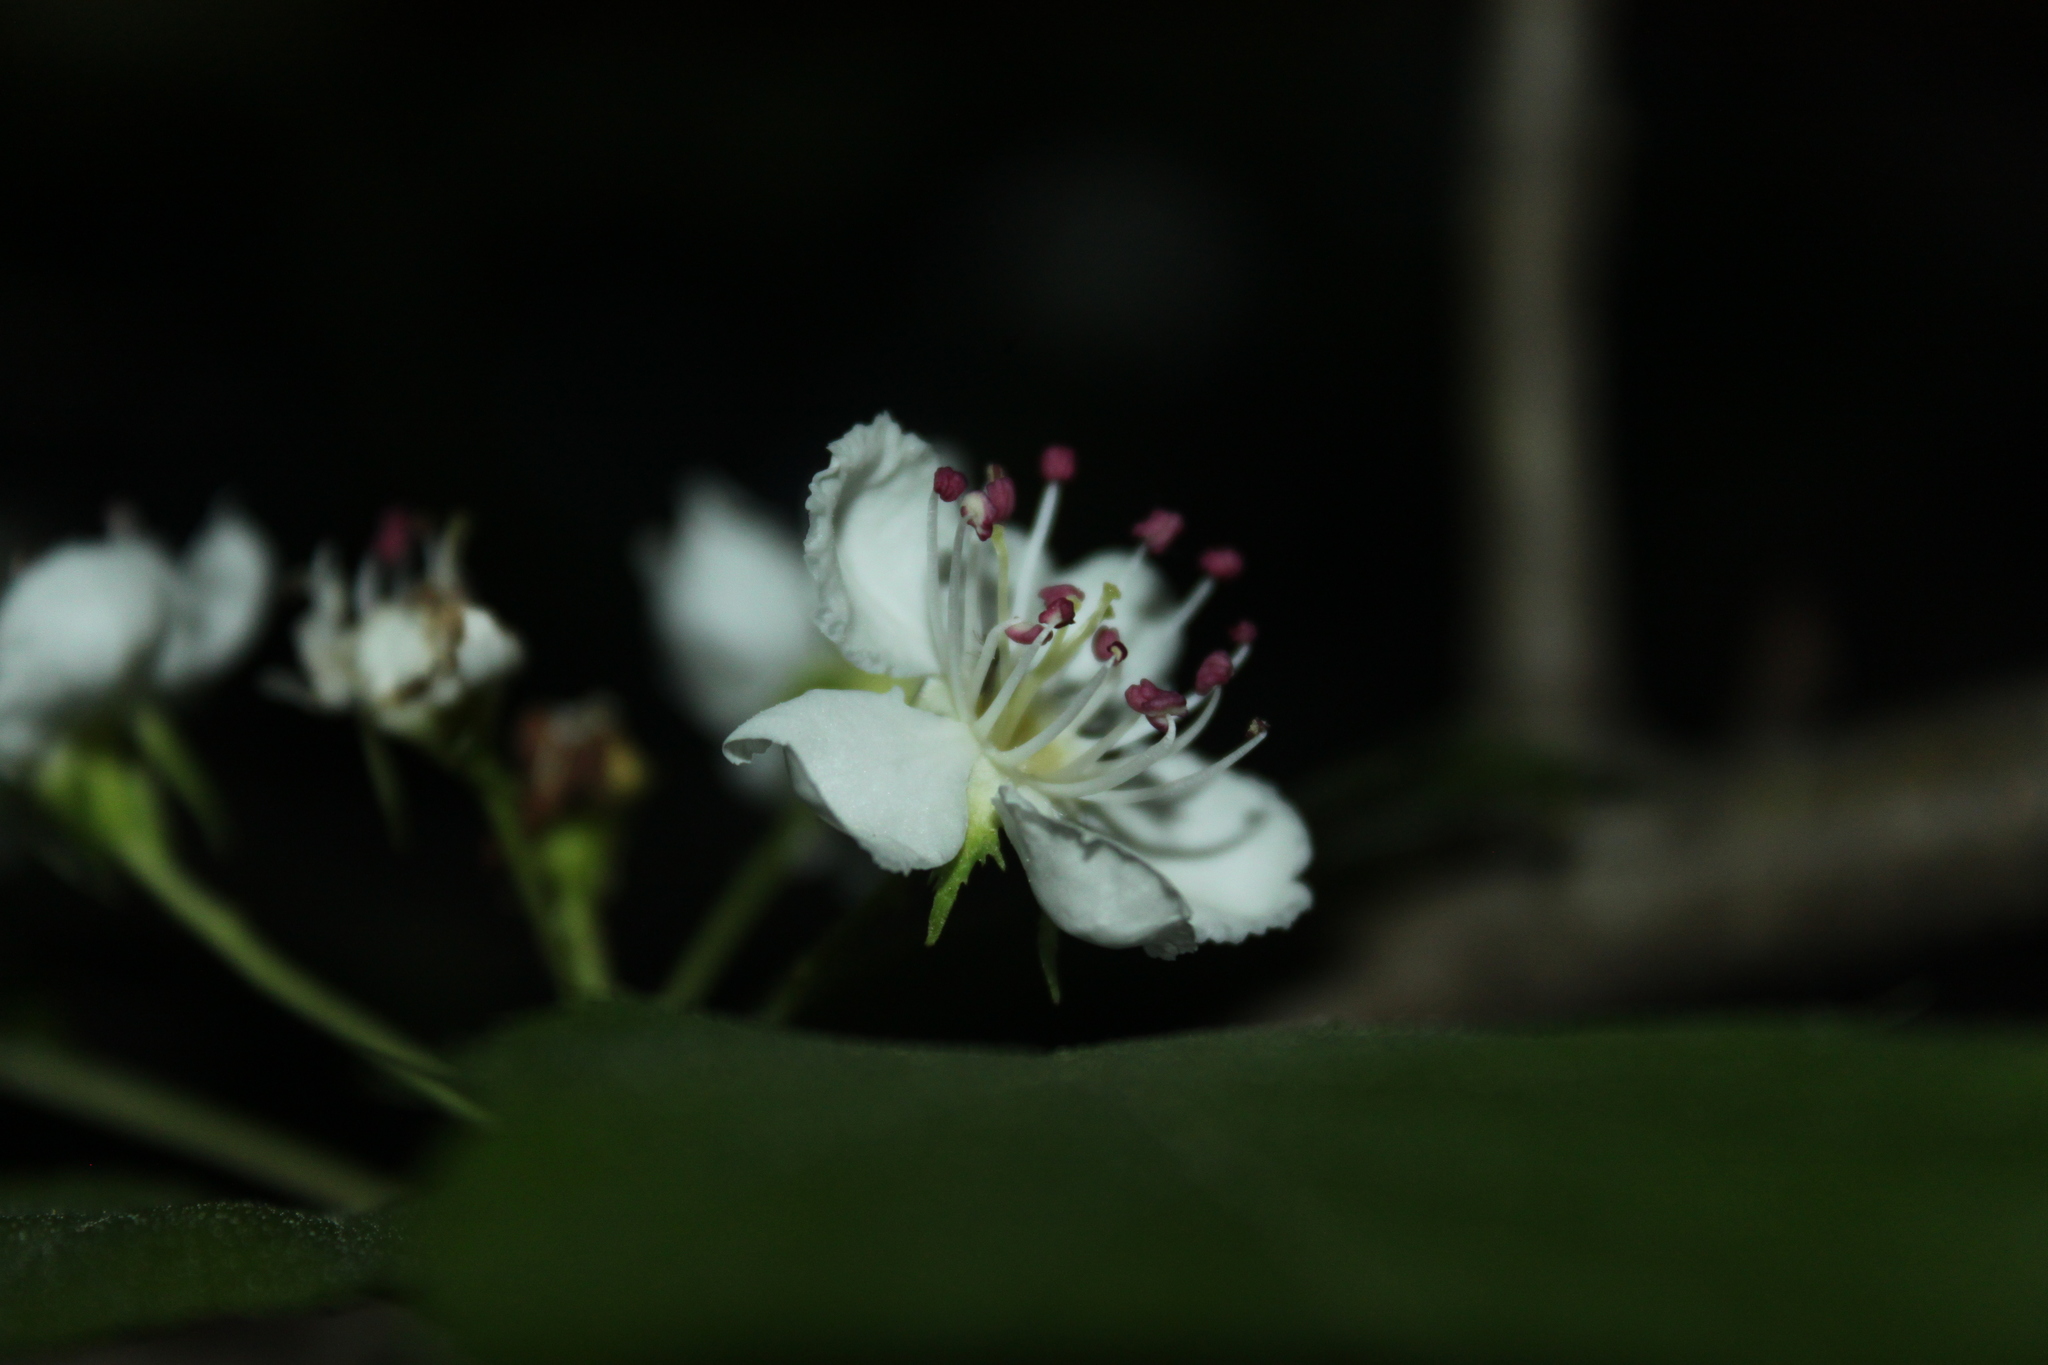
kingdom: Plantae
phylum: Tracheophyta
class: Magnoliopsida
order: Rosales
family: Rosaceae
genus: Crataegus
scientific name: Crataegus schuettei
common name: Schuette's hawthorn
